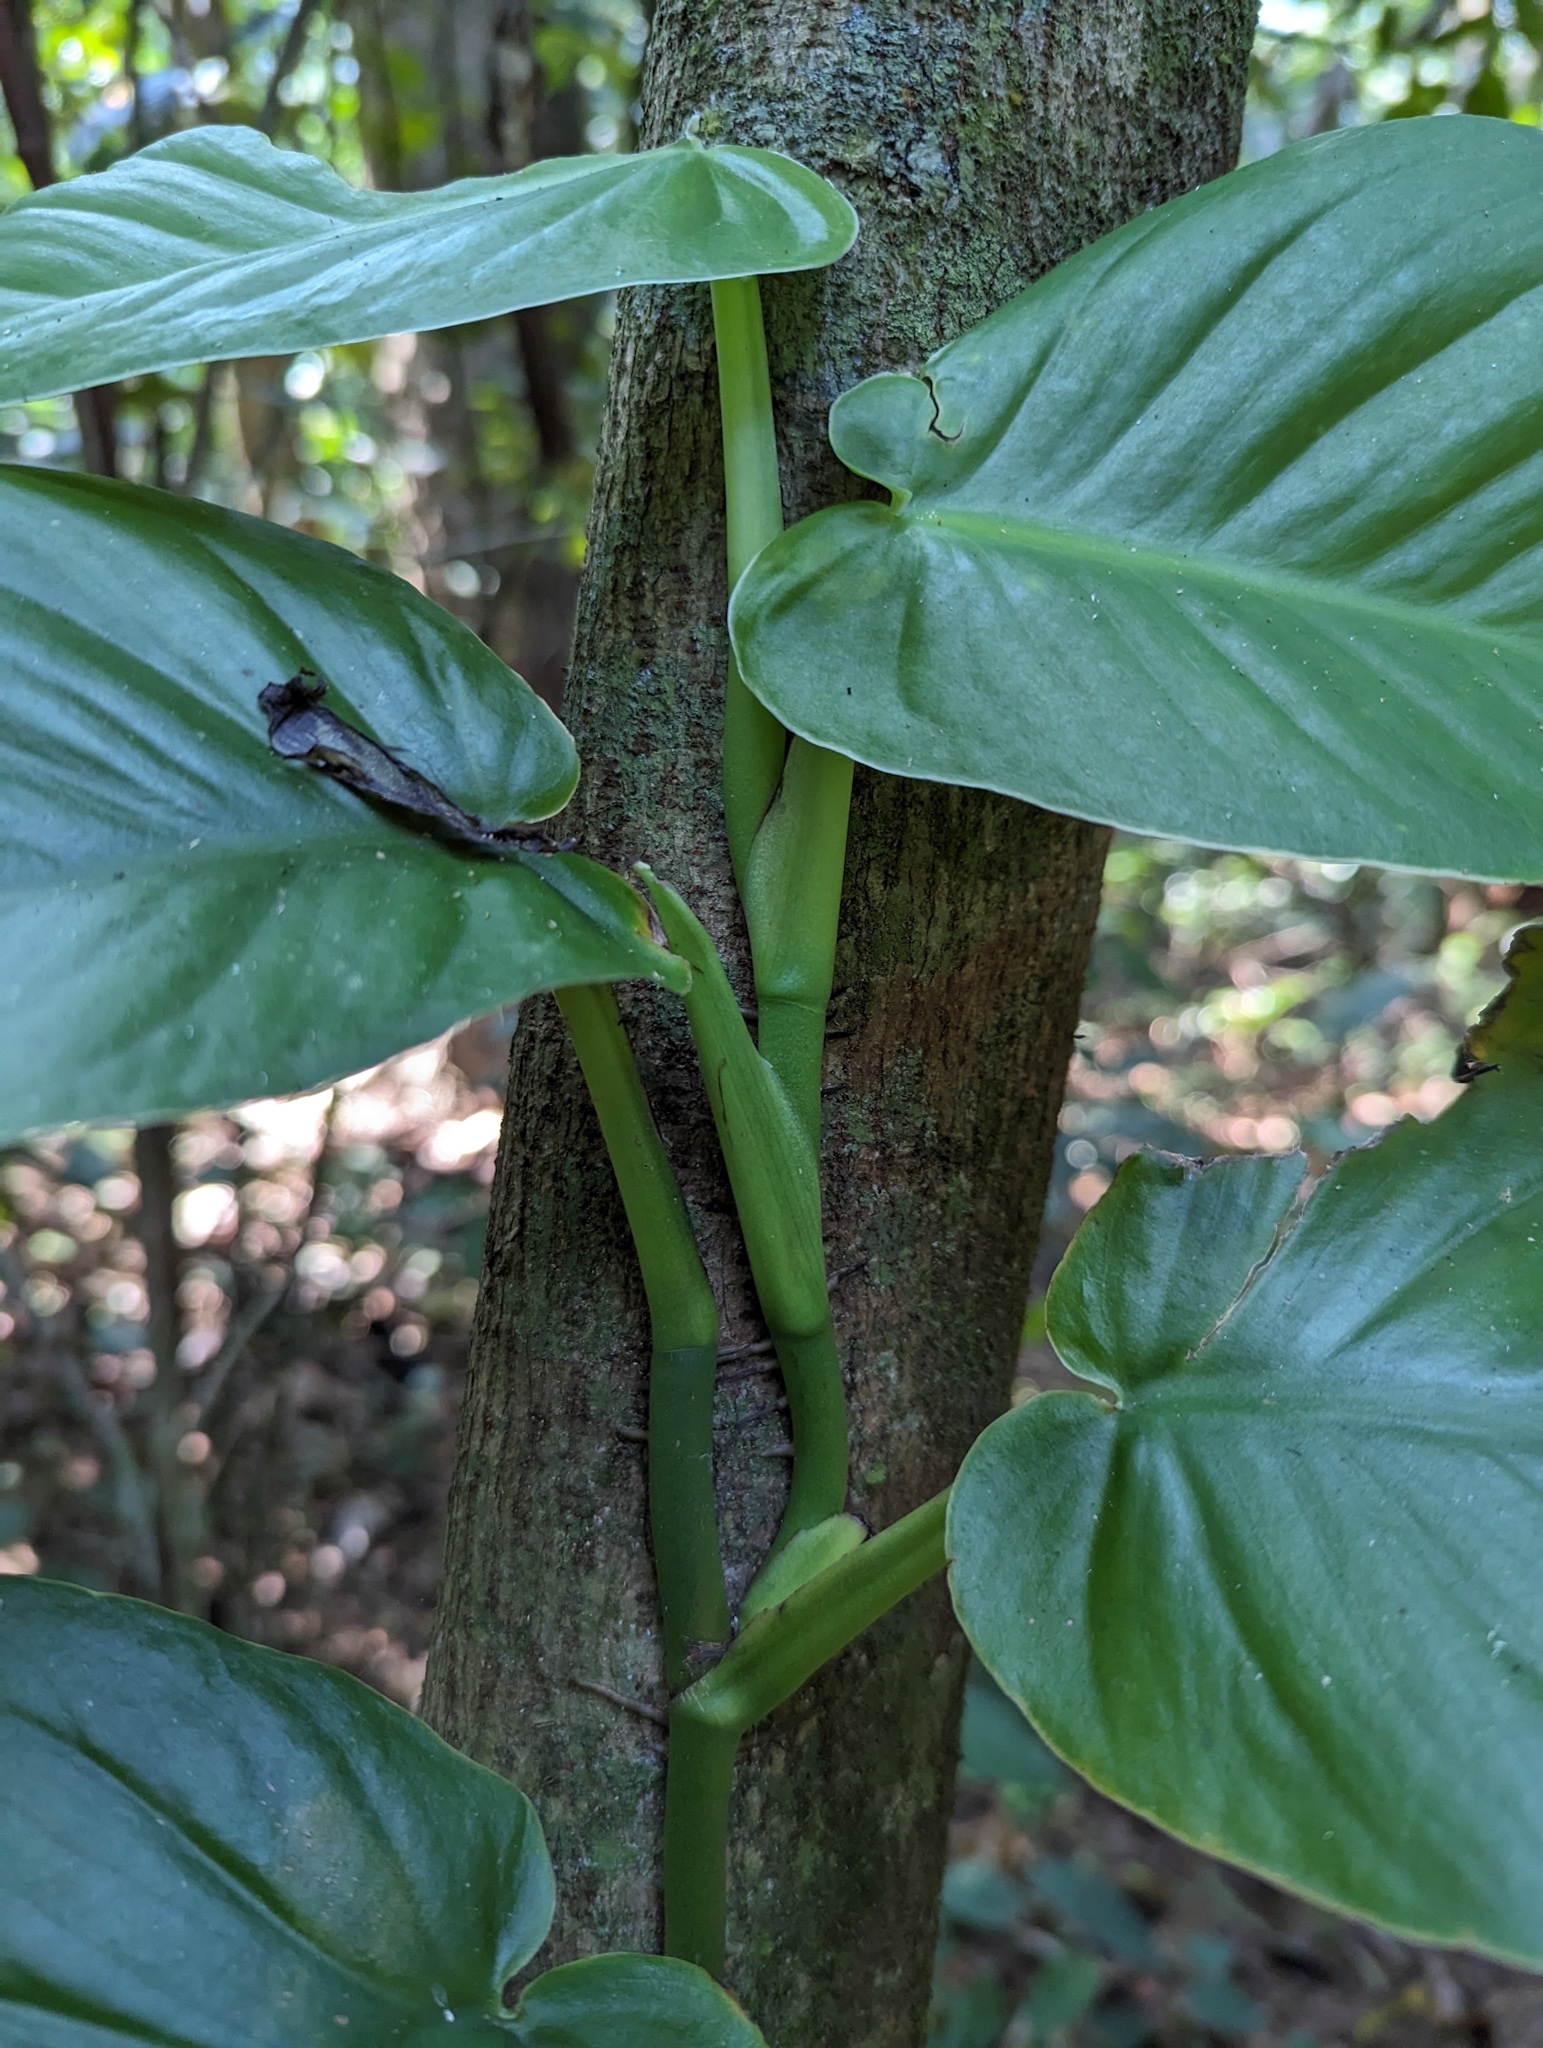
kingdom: Plantae
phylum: Tracheophyta
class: Liliopsida
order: Alismatales
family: Araceae
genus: Monstera
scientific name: Monstera acuminata
